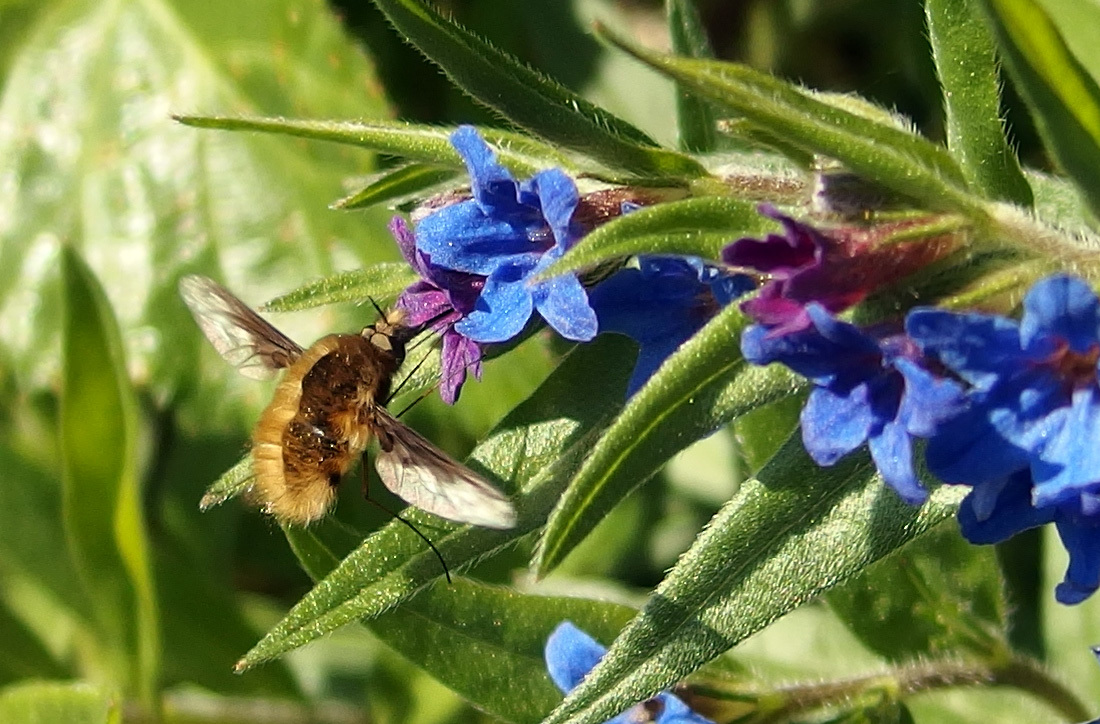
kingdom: Animalia
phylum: Arthropoda
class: Insecta
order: Diptera
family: Bombyliidae
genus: Bombylius
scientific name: Bombylius major
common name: Bee fly
